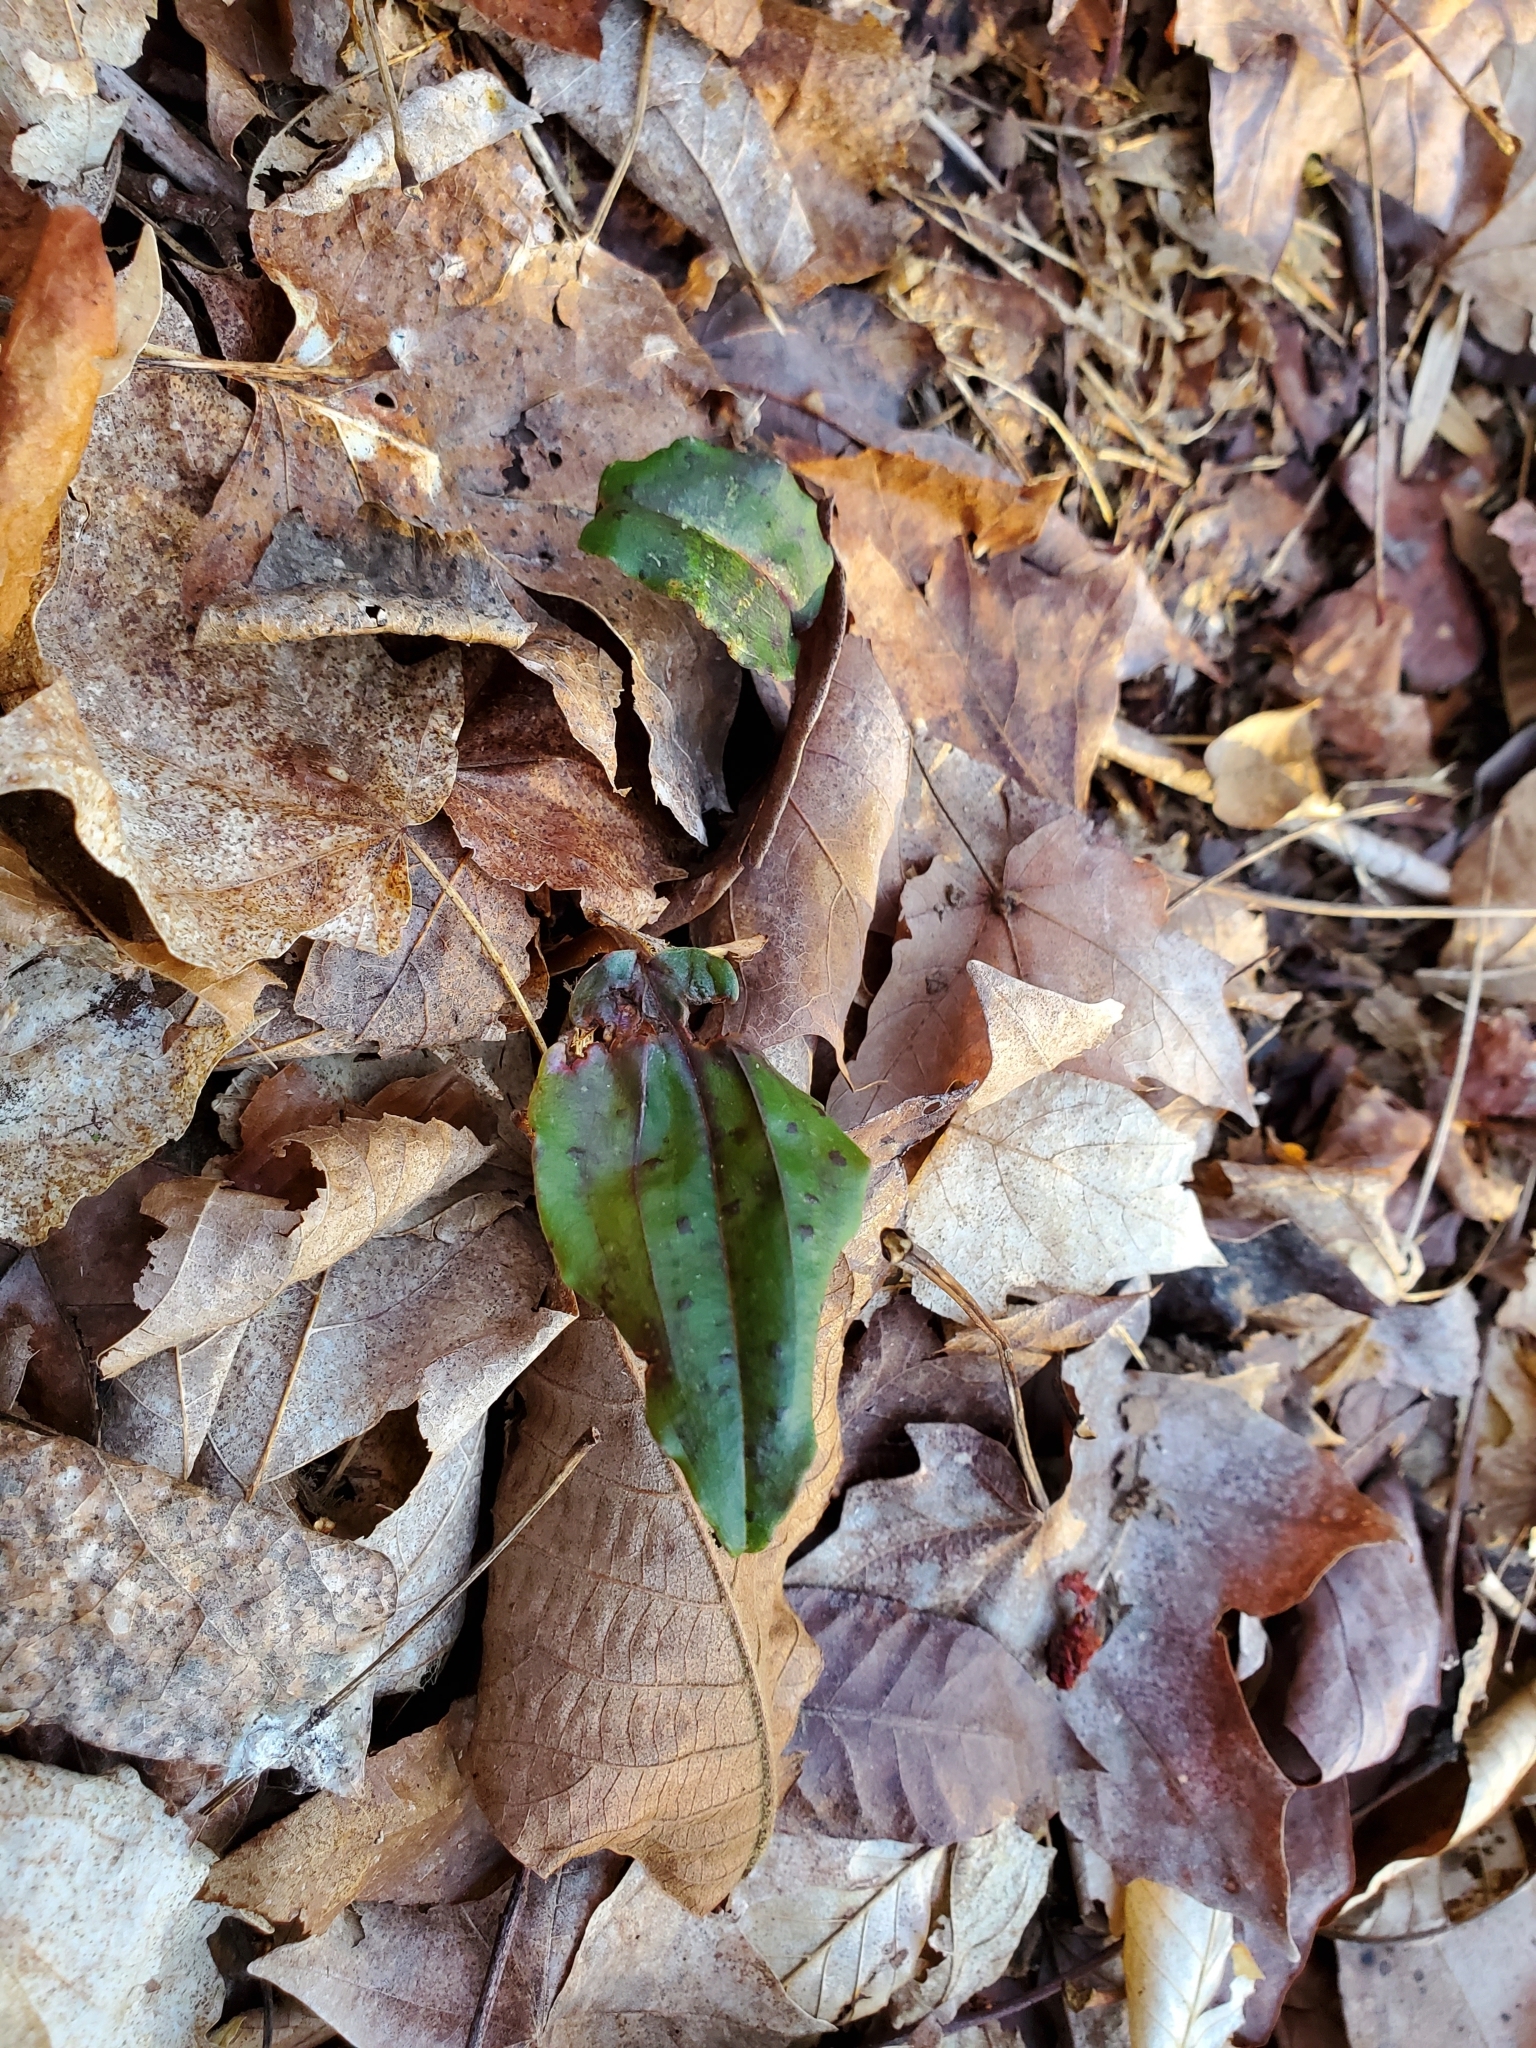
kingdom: Plantae
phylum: Tracheophyta
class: Liliopsida
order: Asparagales
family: Orchidaceae
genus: Tipularia
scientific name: Tipularia discolor
